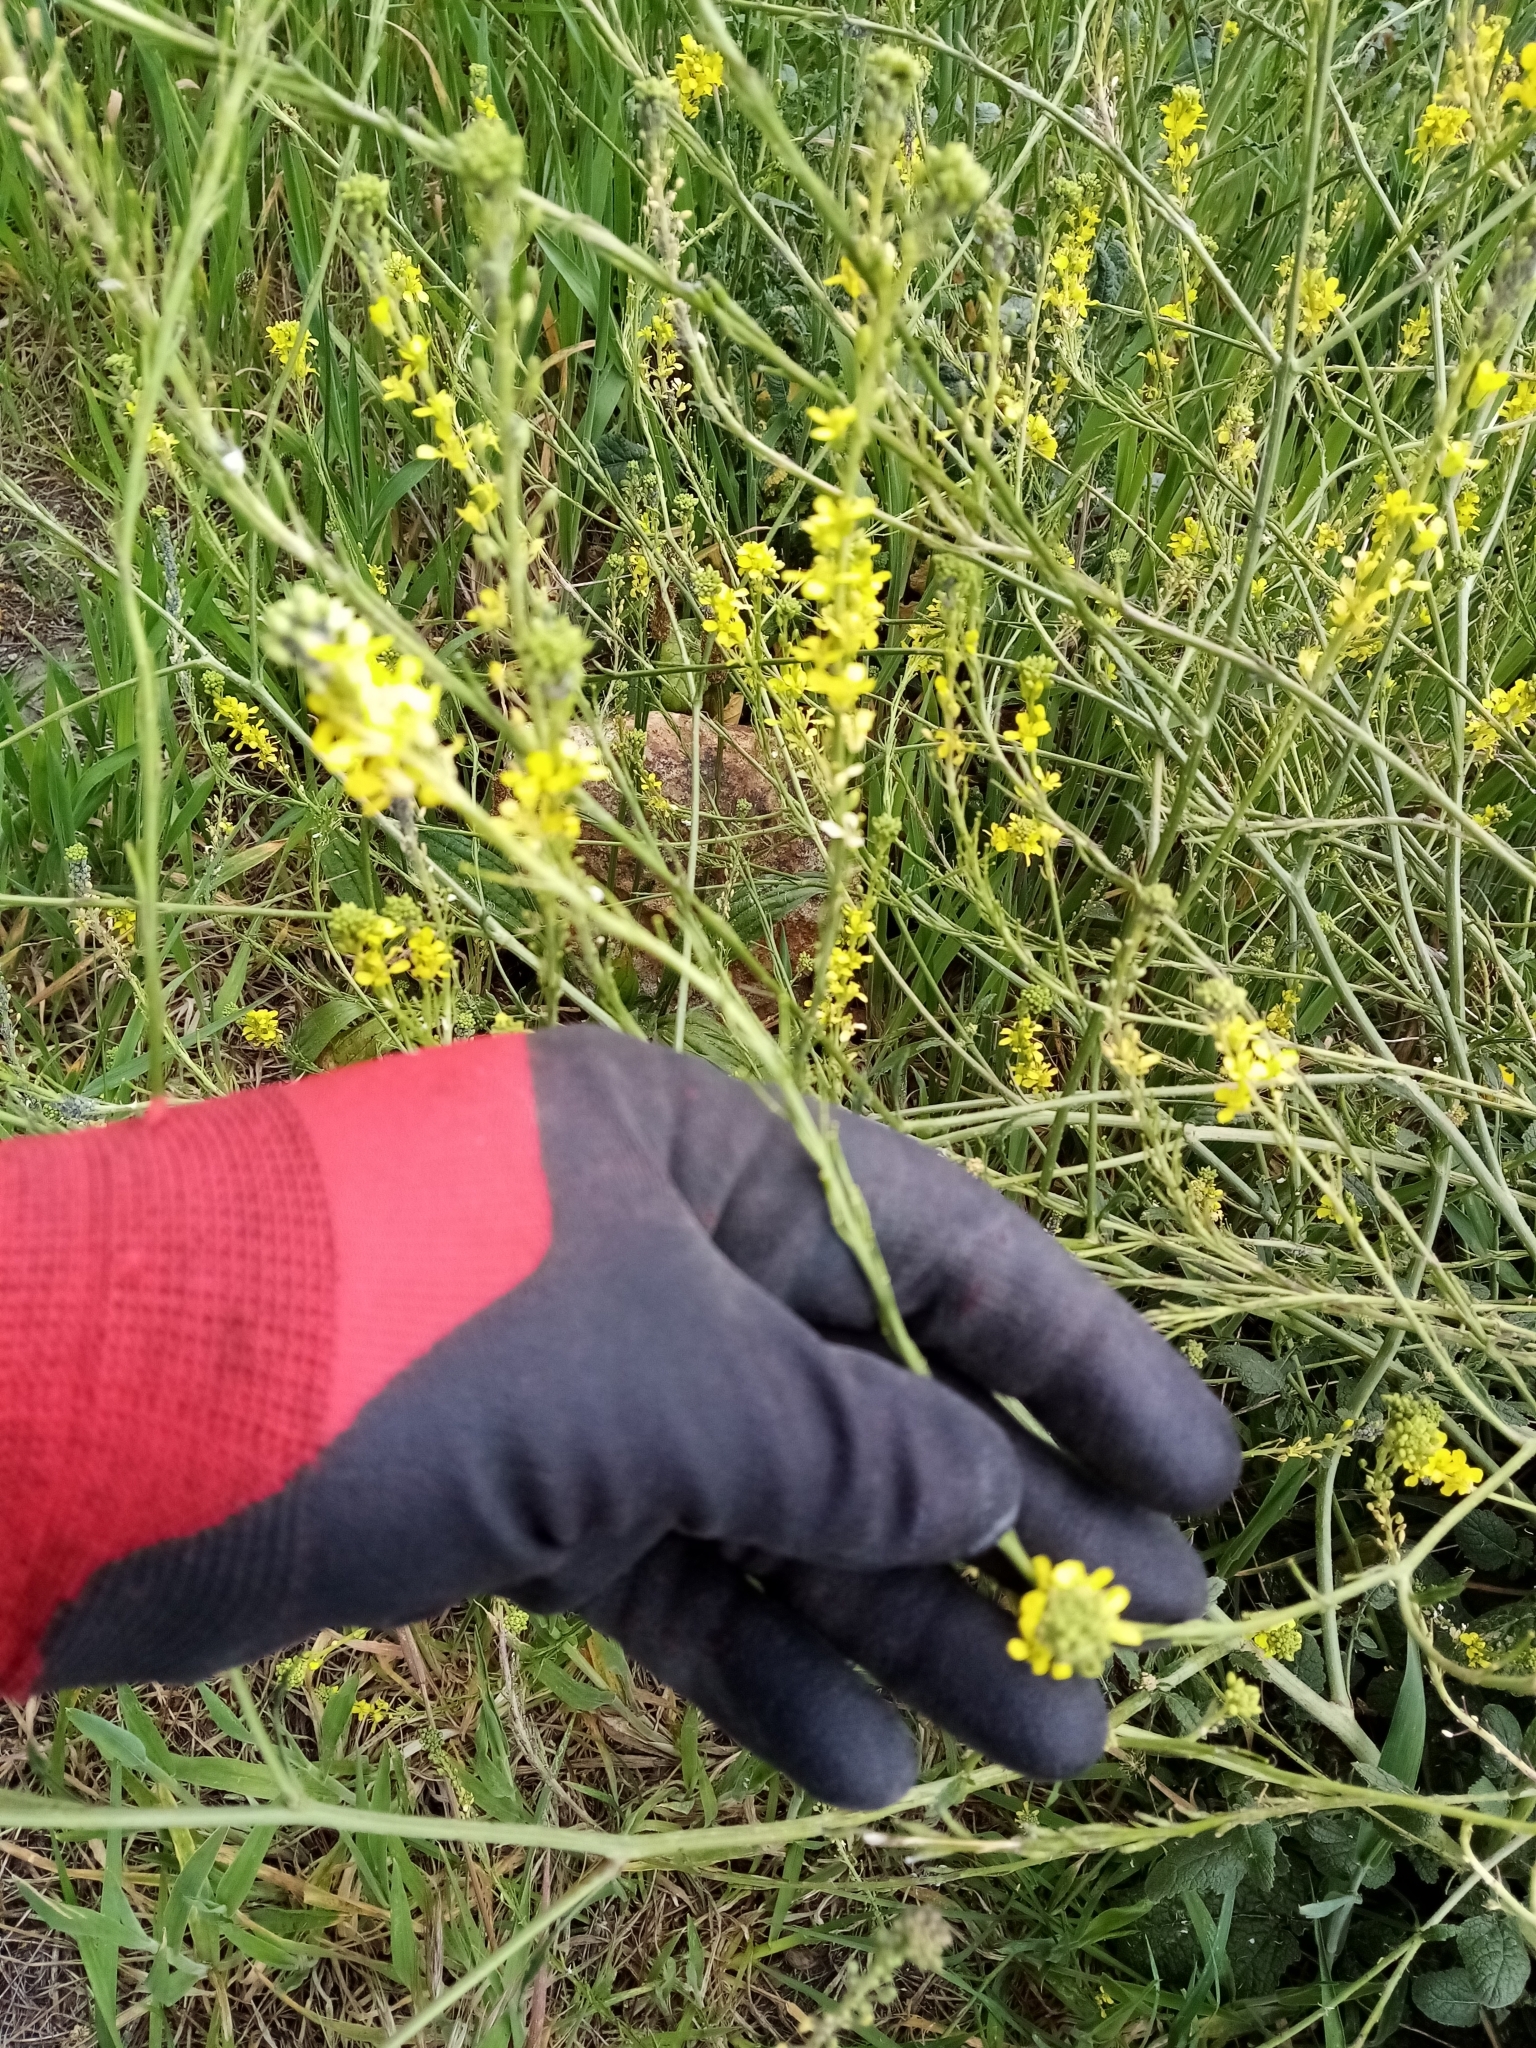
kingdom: Plantae
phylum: Tracheophyta
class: Magnoliopsida
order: Brassicales
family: Brassicaceae
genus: Hirschfeldia
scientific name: Hirschfeldia incana
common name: Hoary mustard
